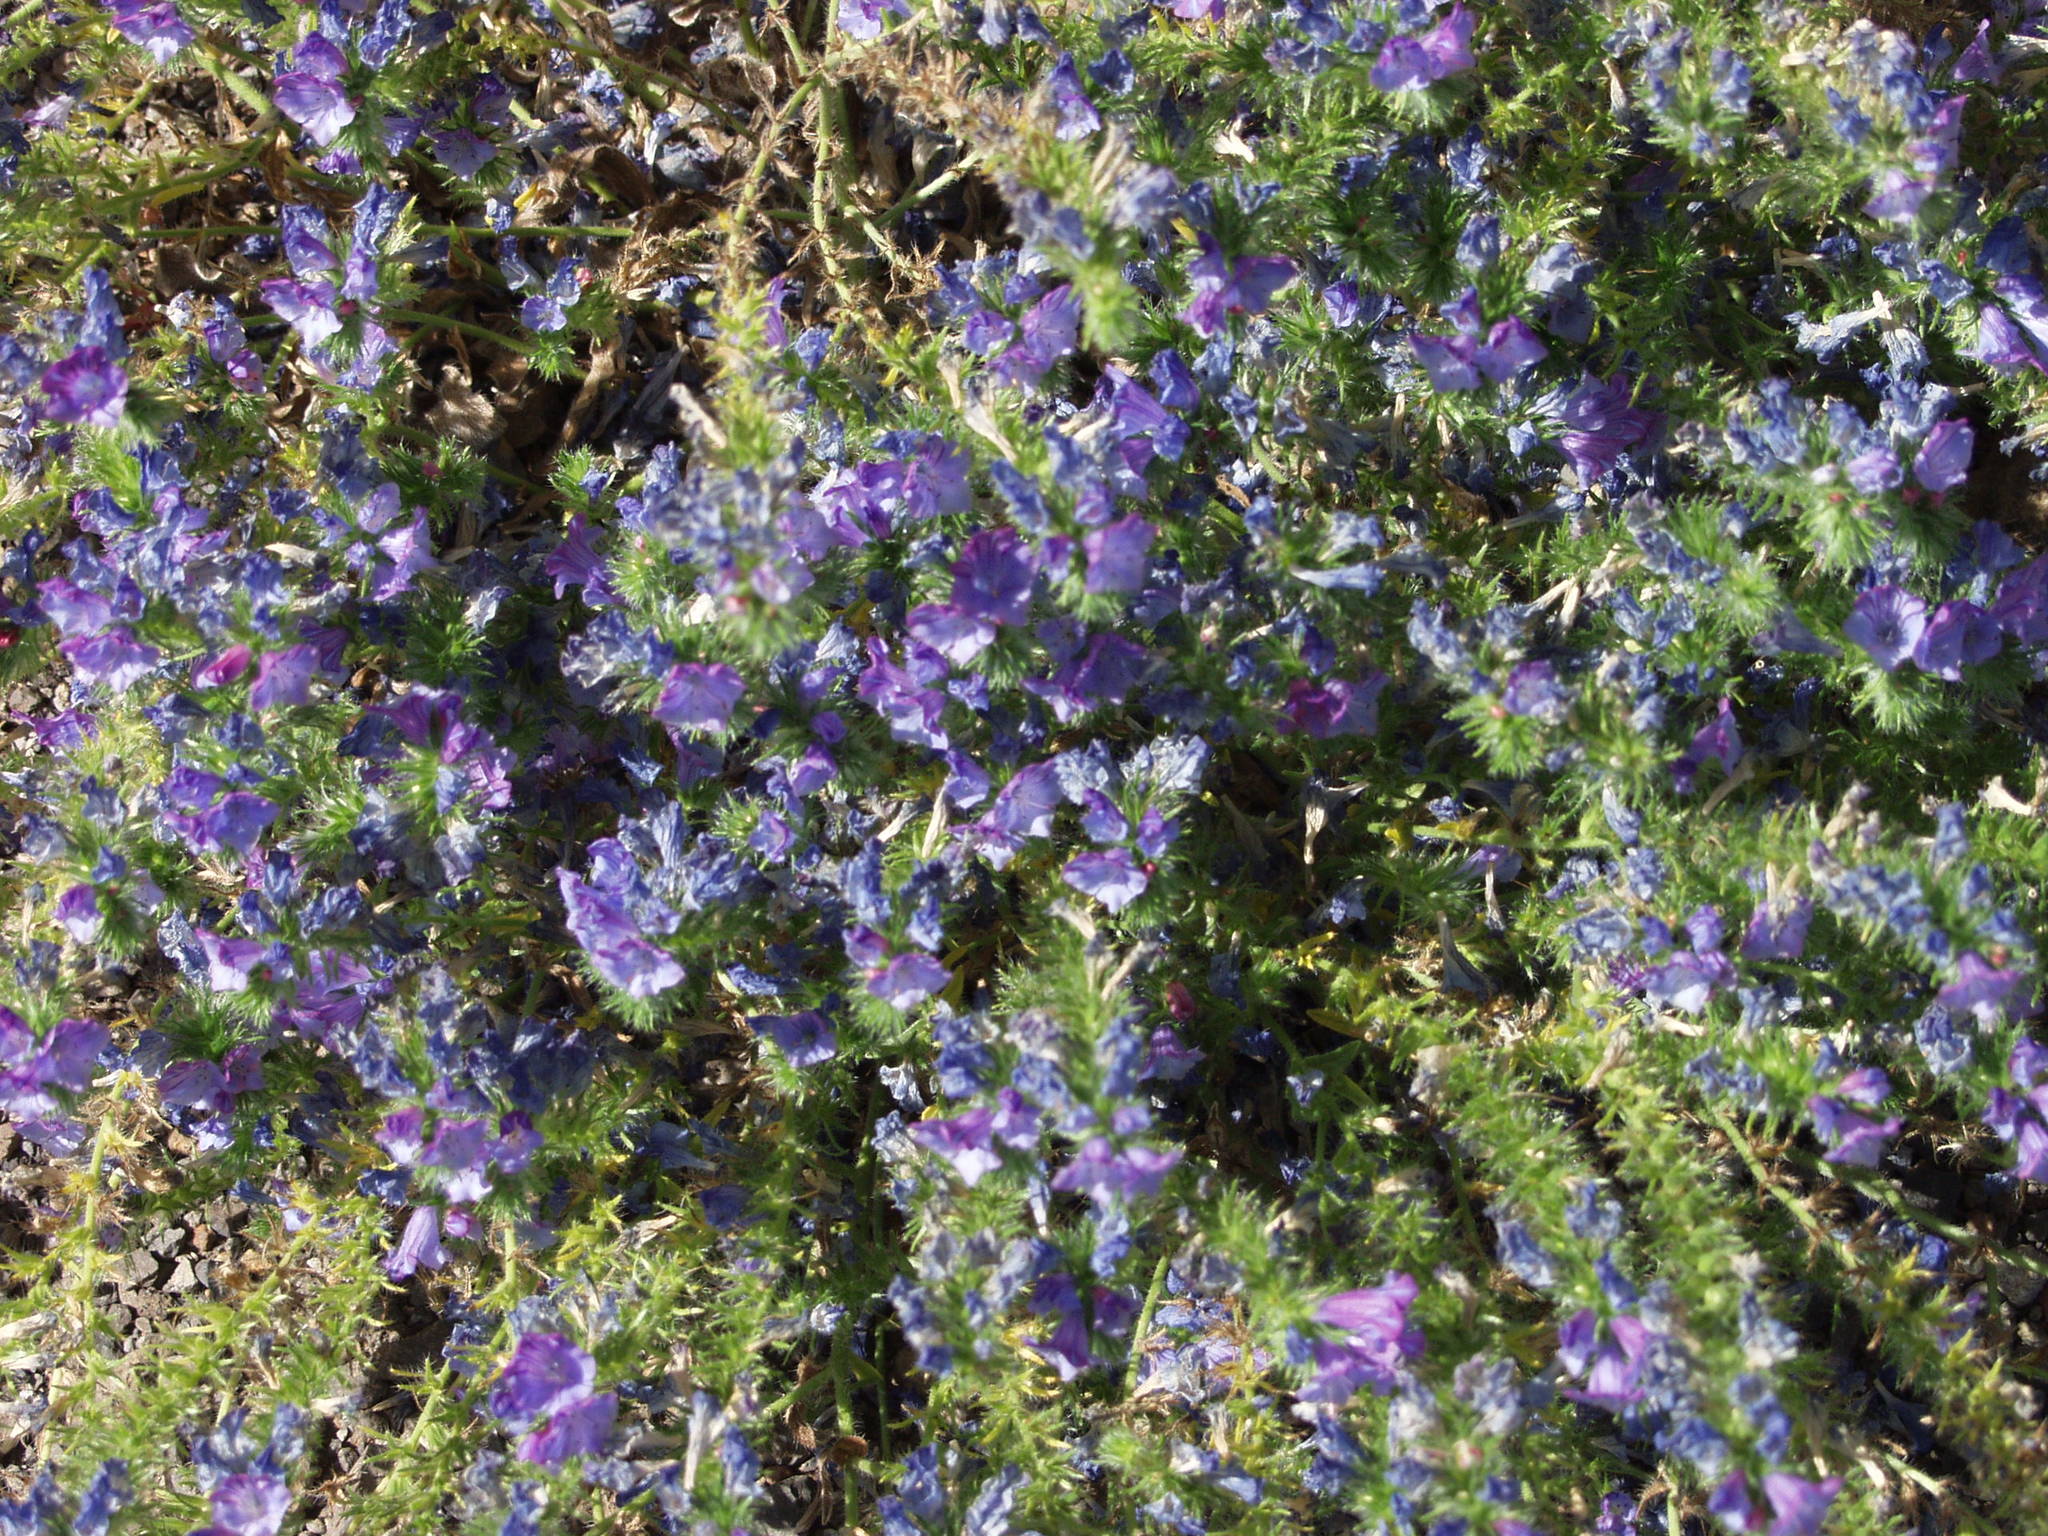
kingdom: Plantae
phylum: Tracheophyta
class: Magnoliopsida
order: Boraginales
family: Boraginaceae
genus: Echium
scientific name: Echium plantagineum
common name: Purple viper's-bugloss
